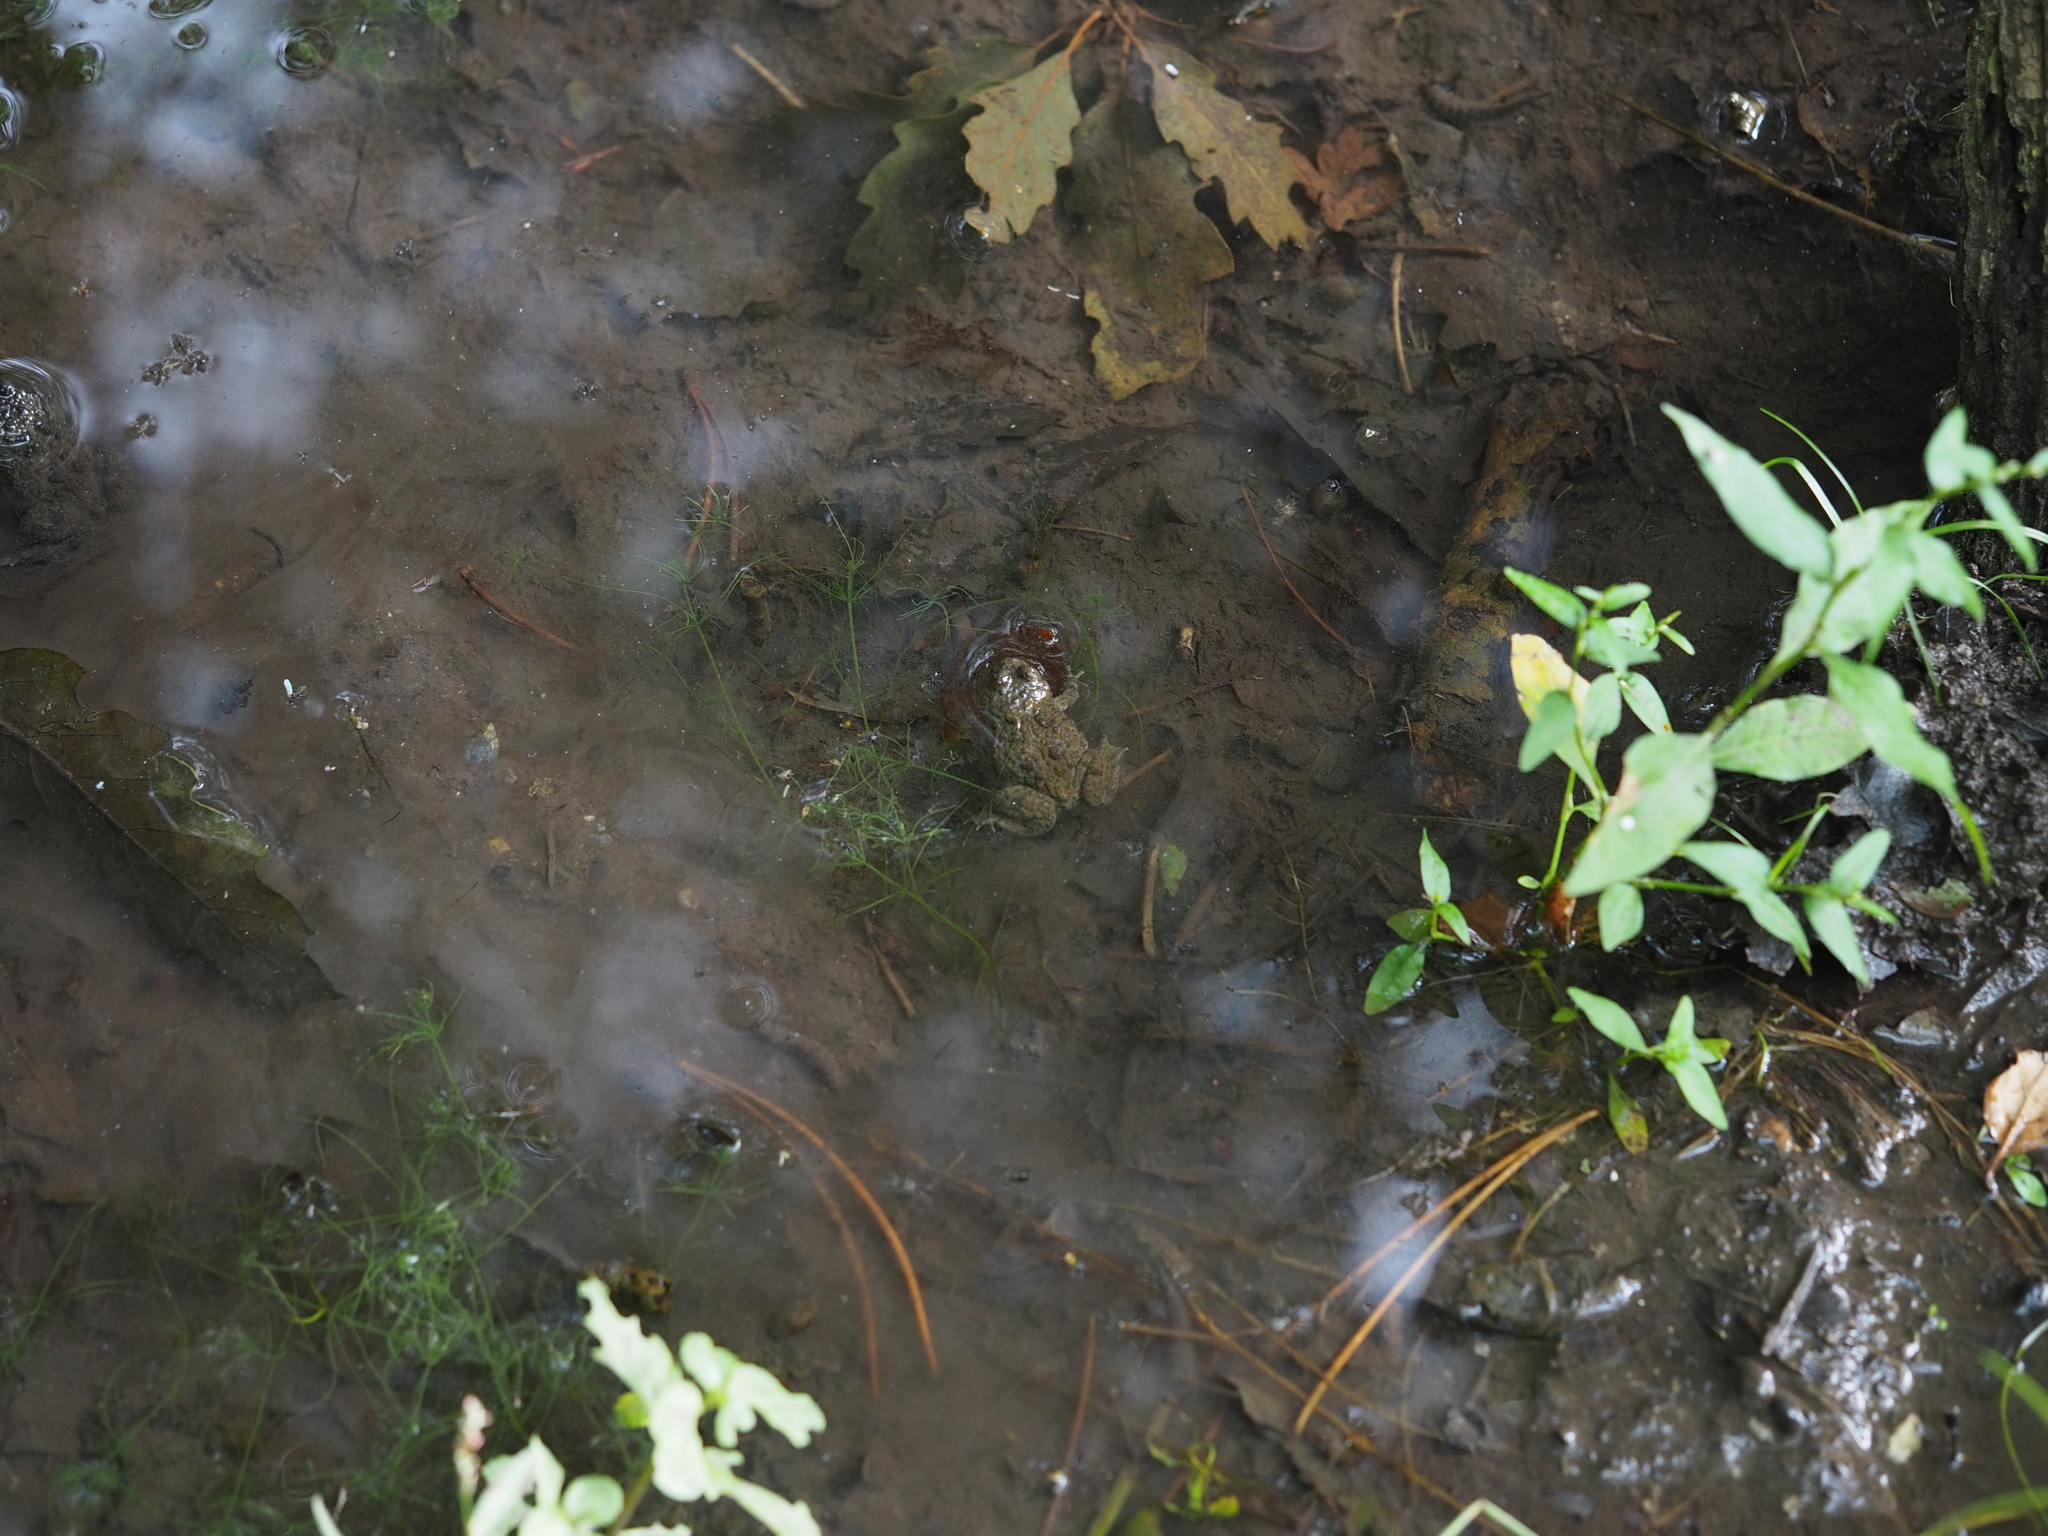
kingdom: Animalia
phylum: Chordata
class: Amphibia
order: Anura
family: Bombinatoridae
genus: Bombina
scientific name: Bombina variegata
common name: Yellow-bellied toad
